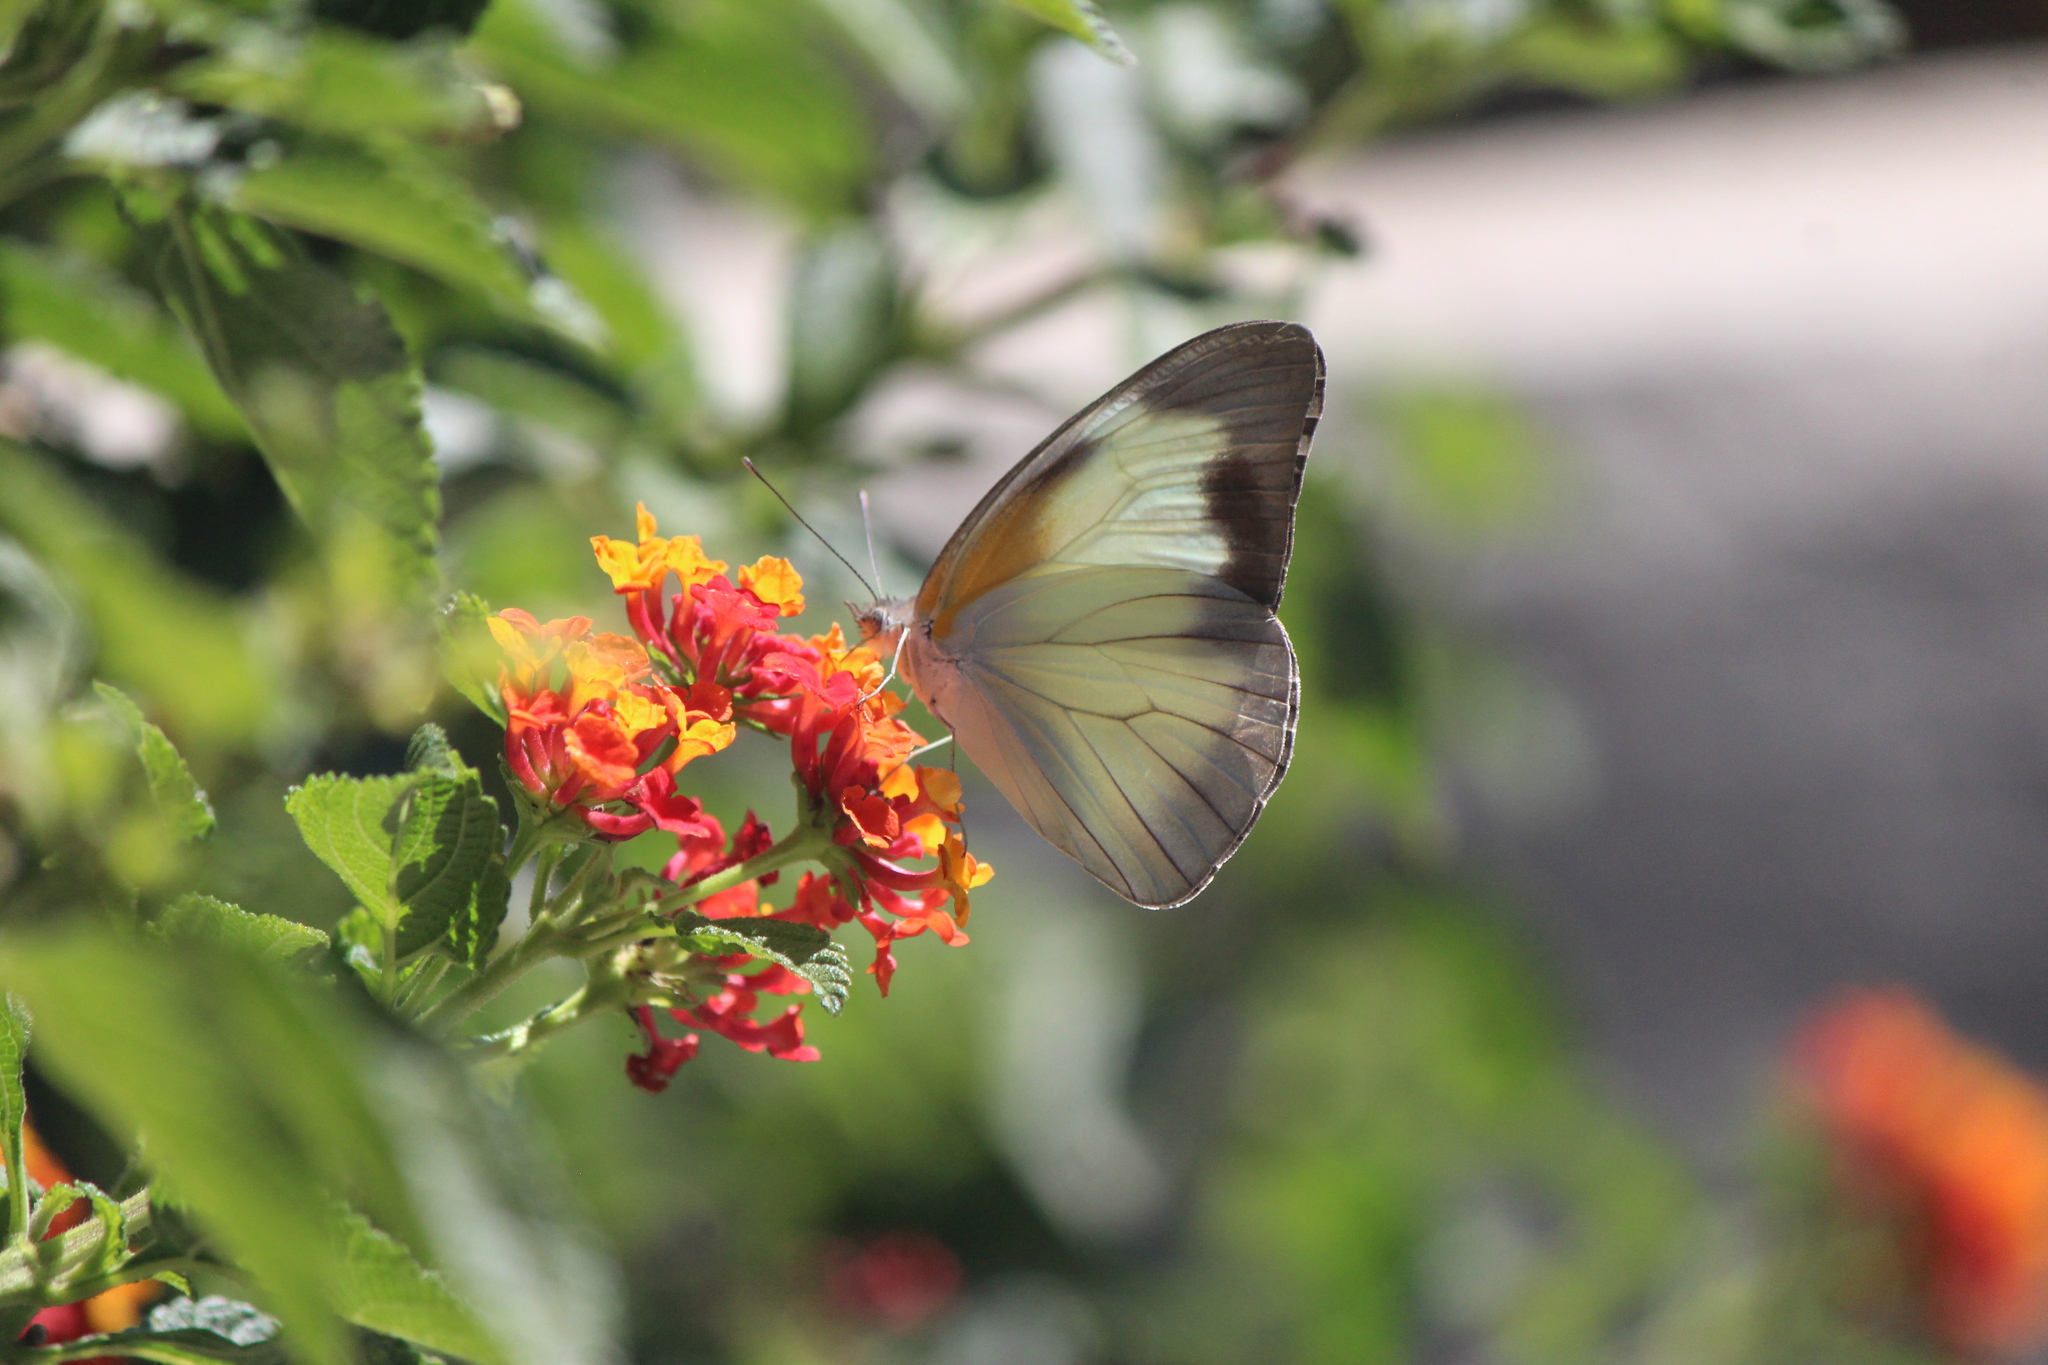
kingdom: Animalia
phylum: Arthropoda
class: Insecta
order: Lepidoptera
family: Pieridae
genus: Glutophrissa
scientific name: Glutophrissa drusilla
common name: Florida white
